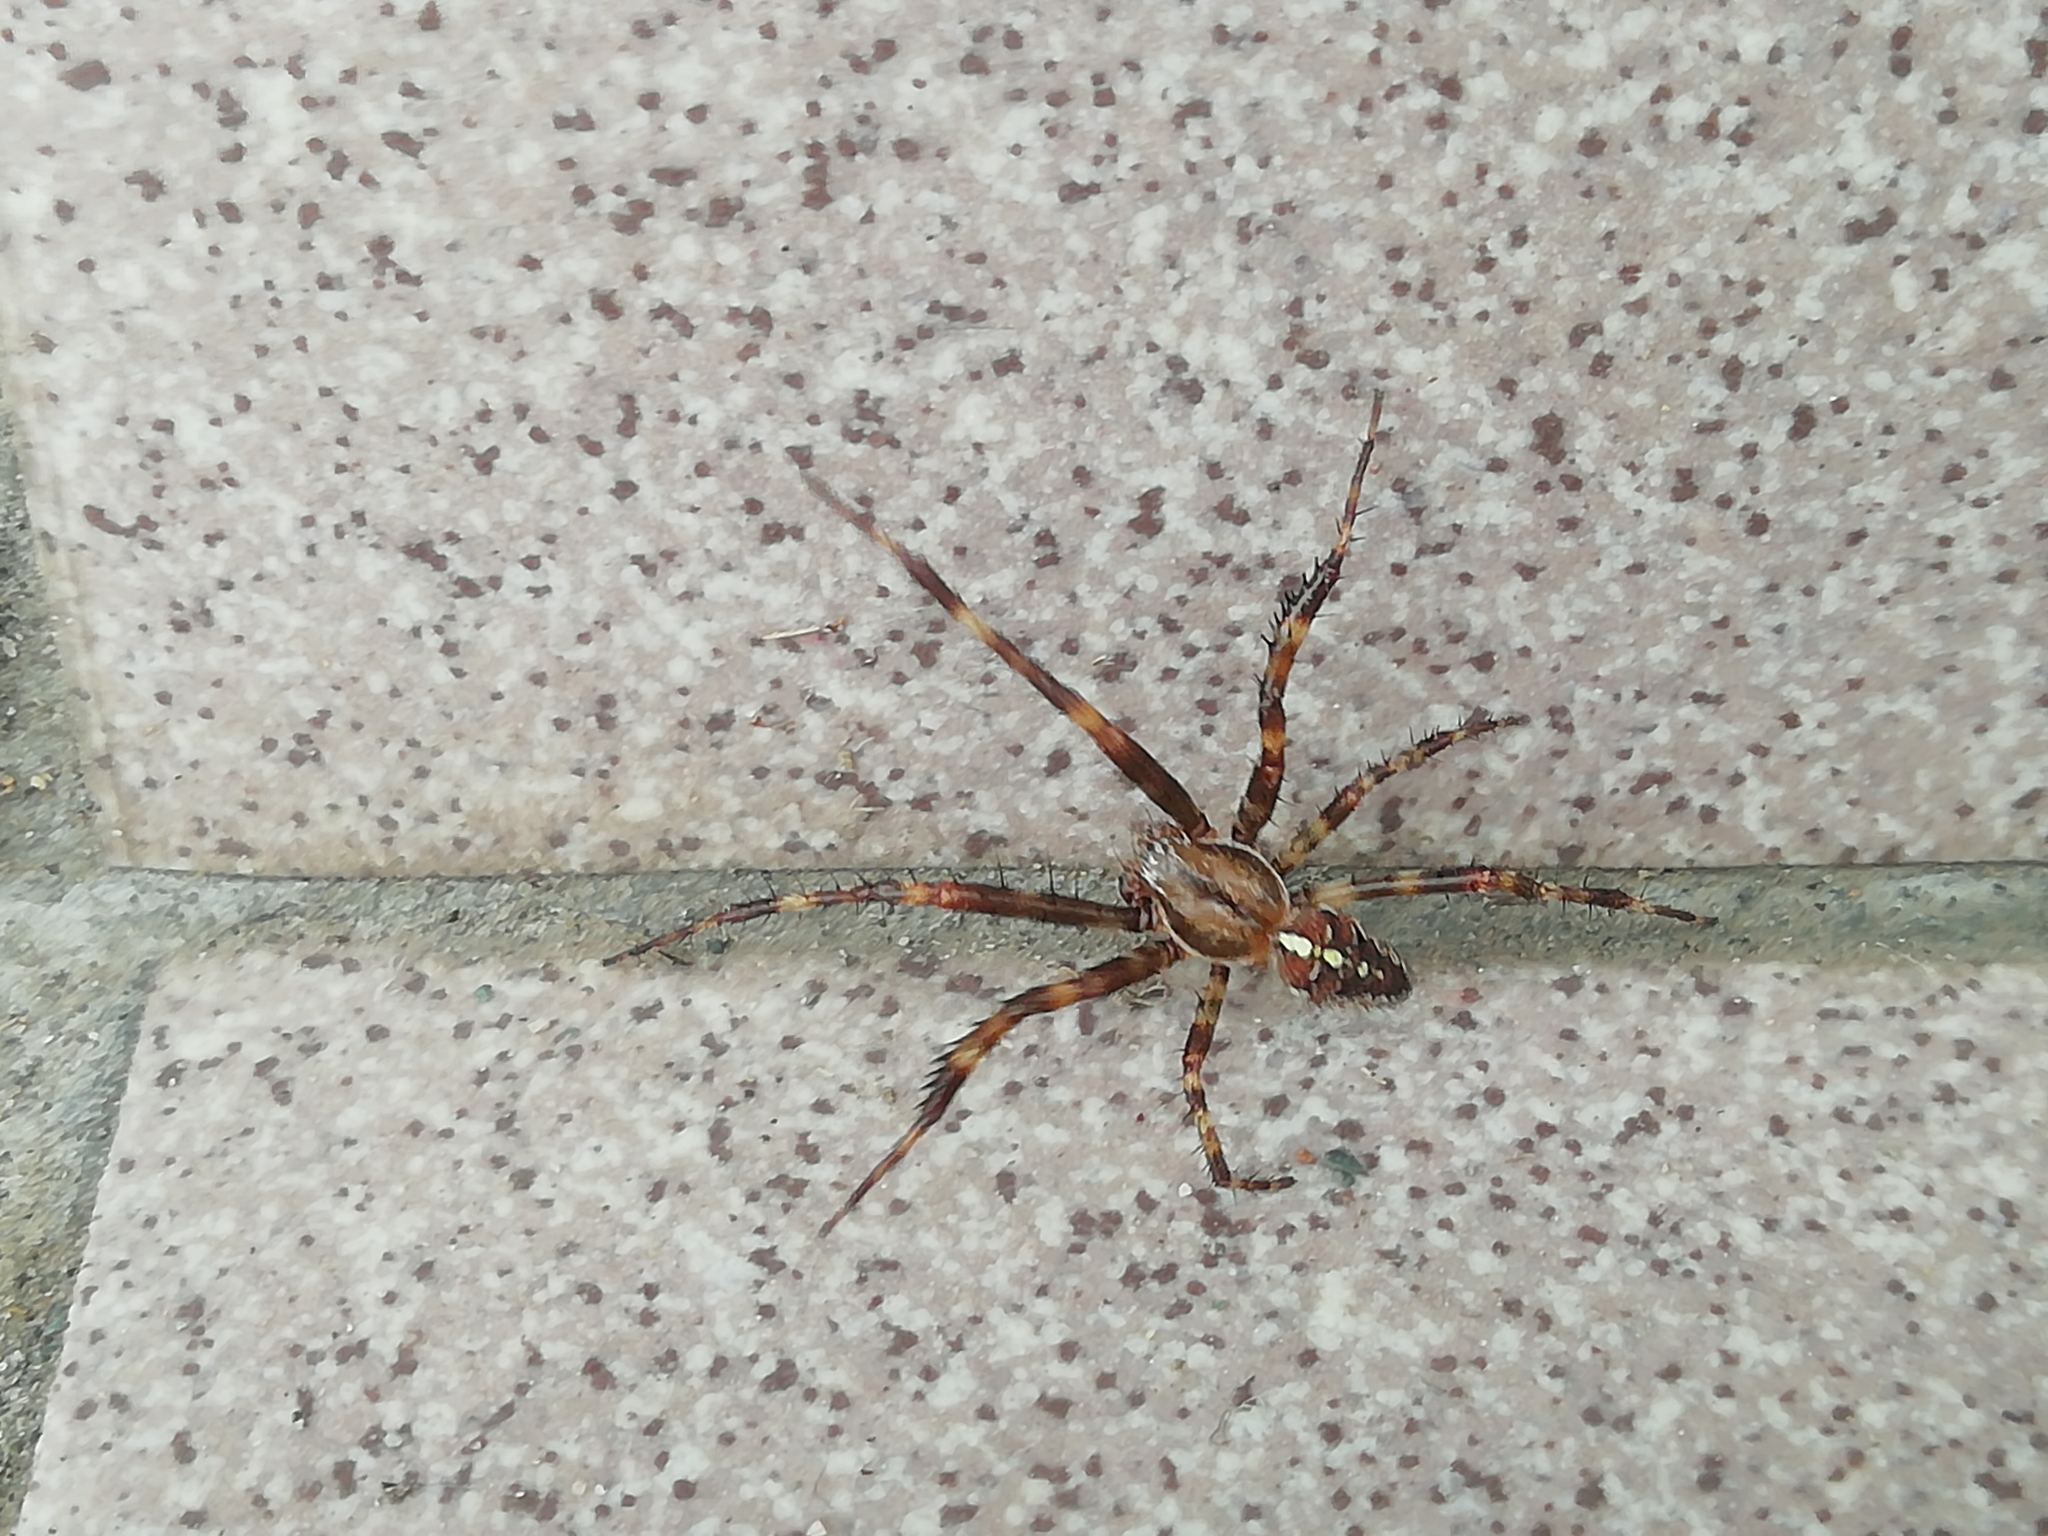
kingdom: Animalia
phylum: Arthropoda
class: Arachnida
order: Araneae
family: Araneidae
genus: Araneus
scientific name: Araneus diadematus
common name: Cross orbweaver
